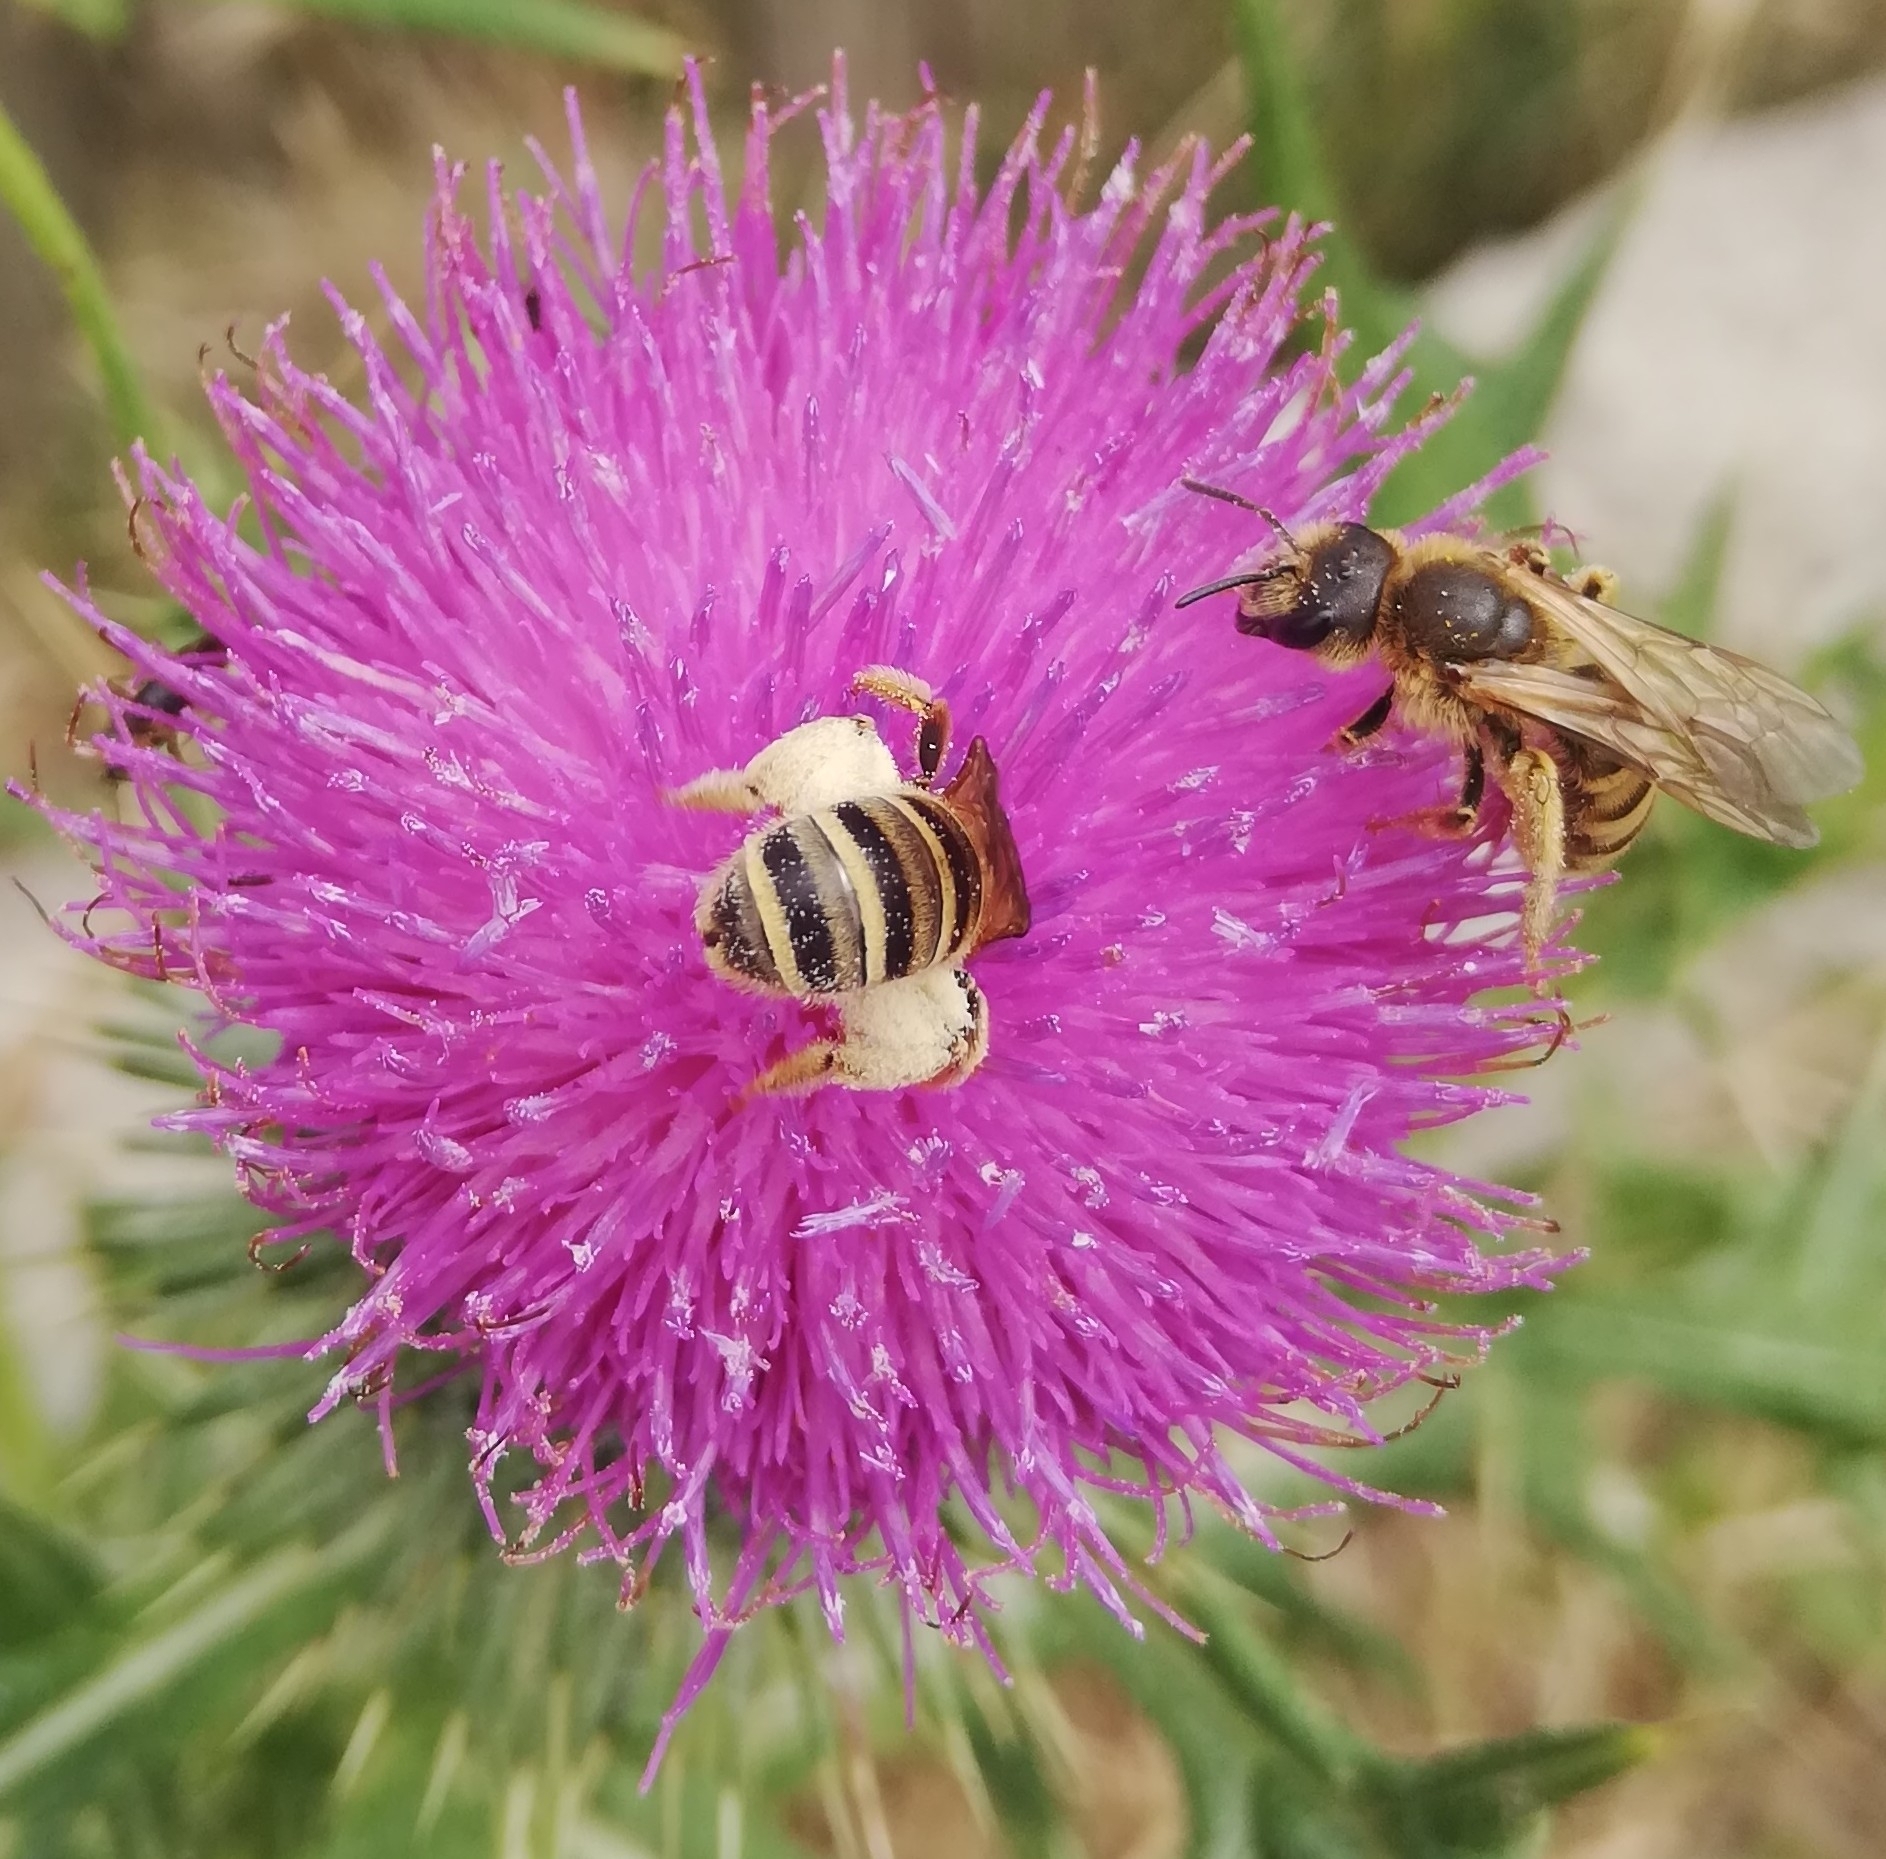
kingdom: Animalia
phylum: Arthropoda
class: Insecta
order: Hymenoptera
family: Halictidae
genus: Halictus
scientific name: Halictus scabiosae
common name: Great banded furrow bee
